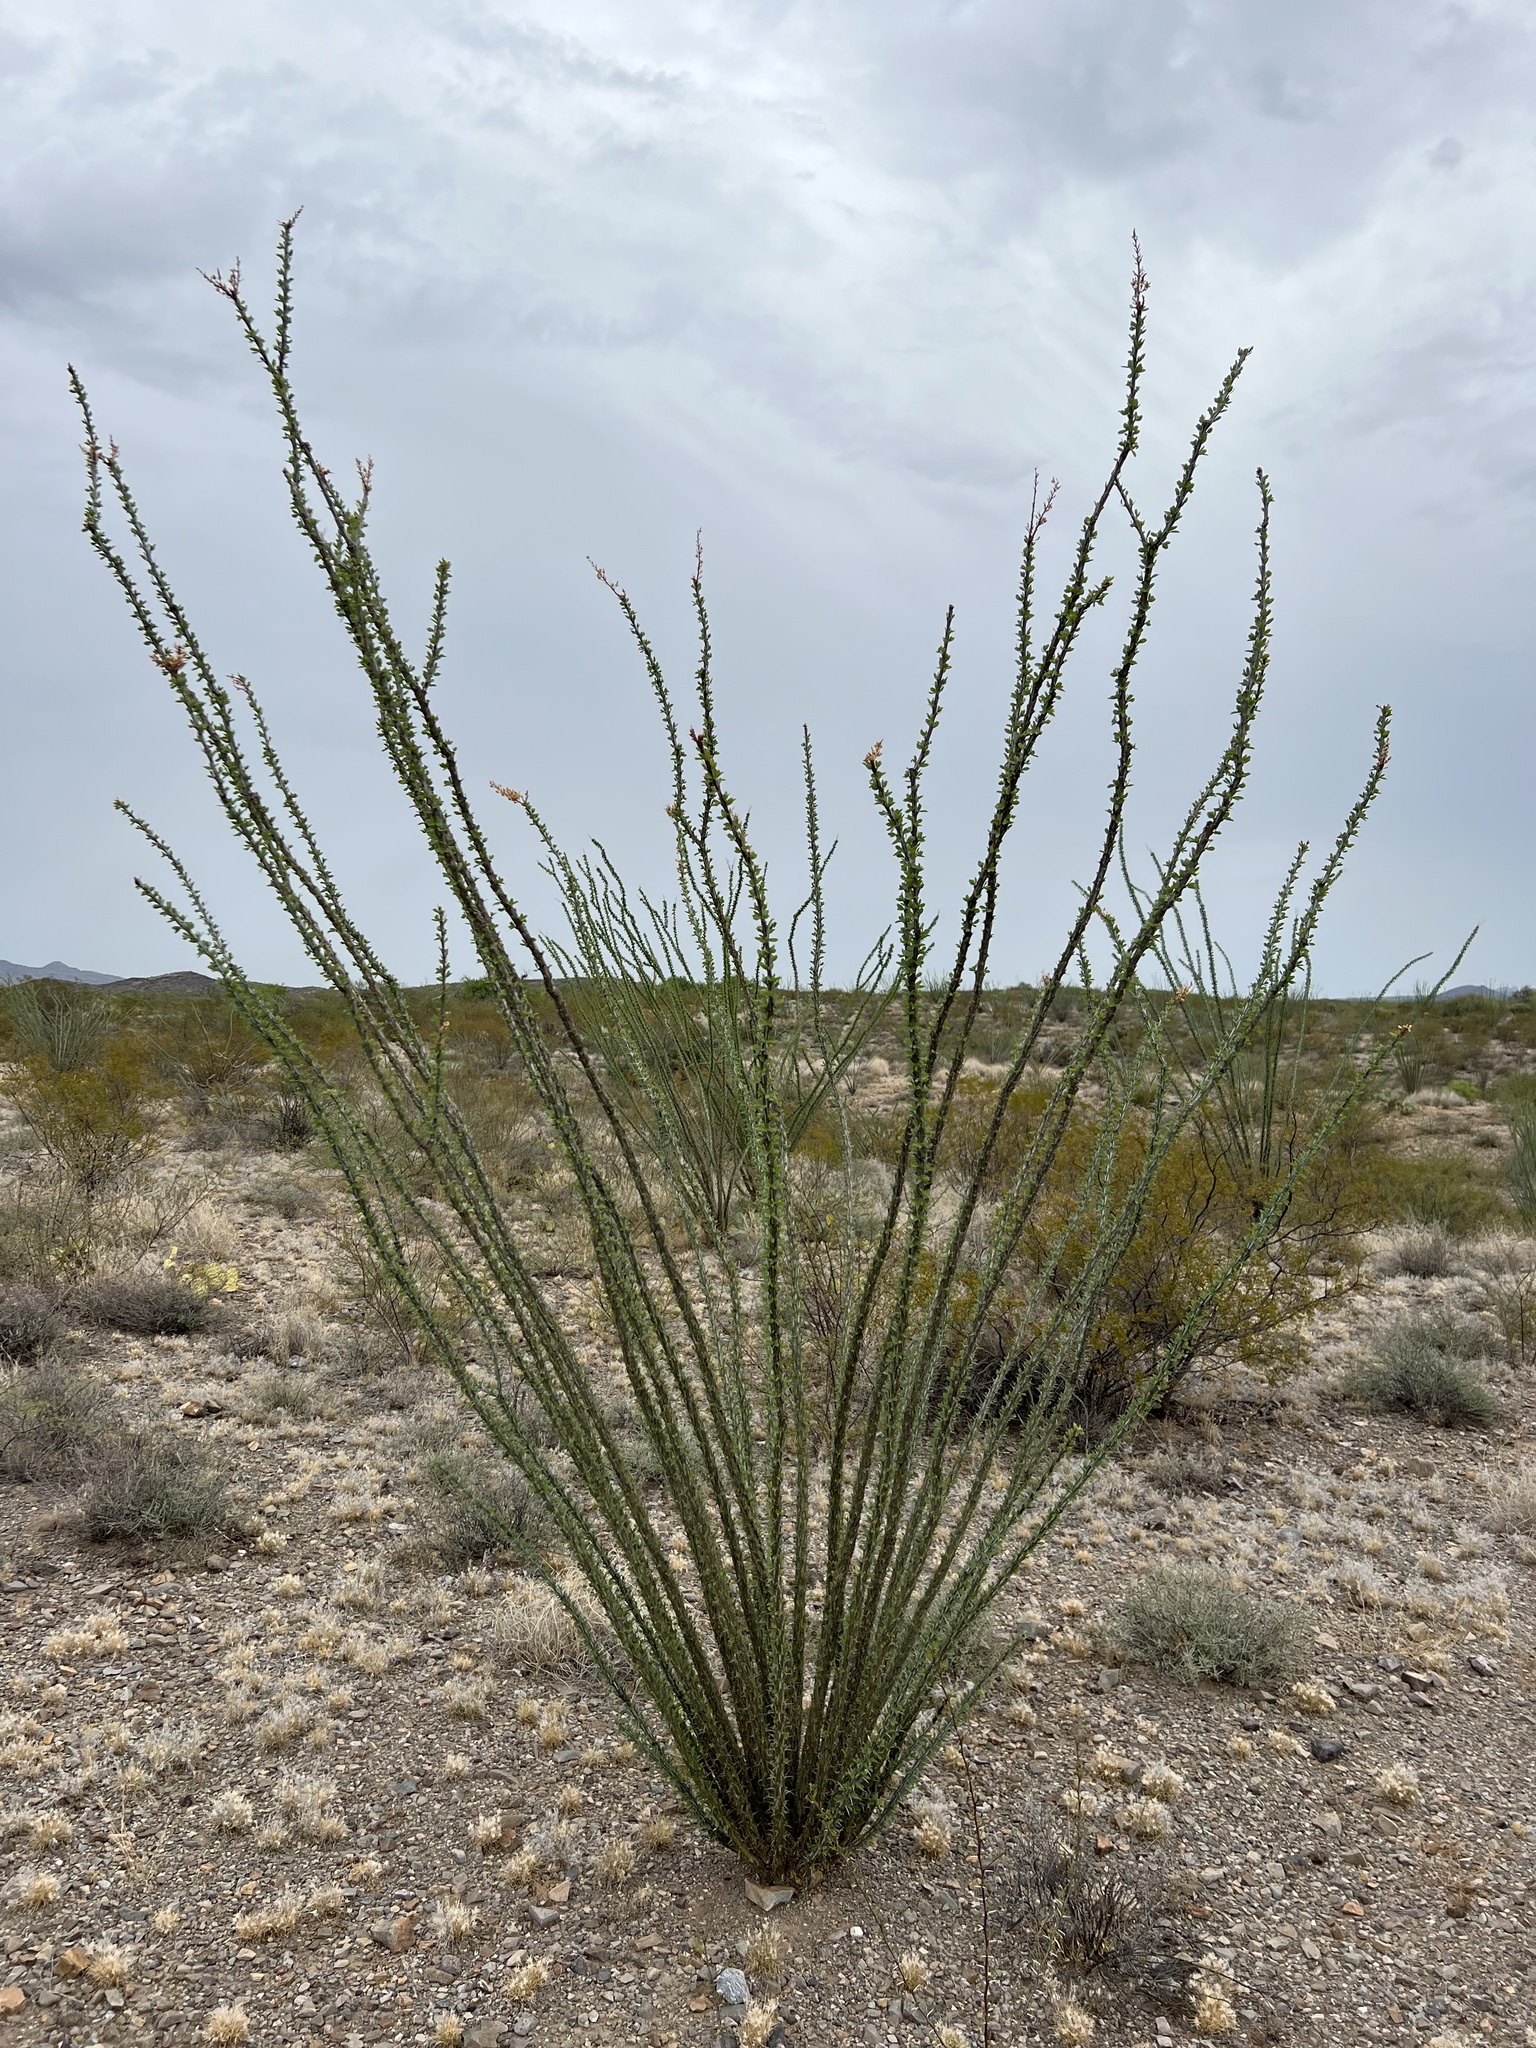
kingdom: Plantae
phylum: Tracheophyta
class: Magnoliopsida
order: Ericales
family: Fouquieriaceae
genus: Fouquieria
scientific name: Fouquieria splendens
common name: Vine-cactus
